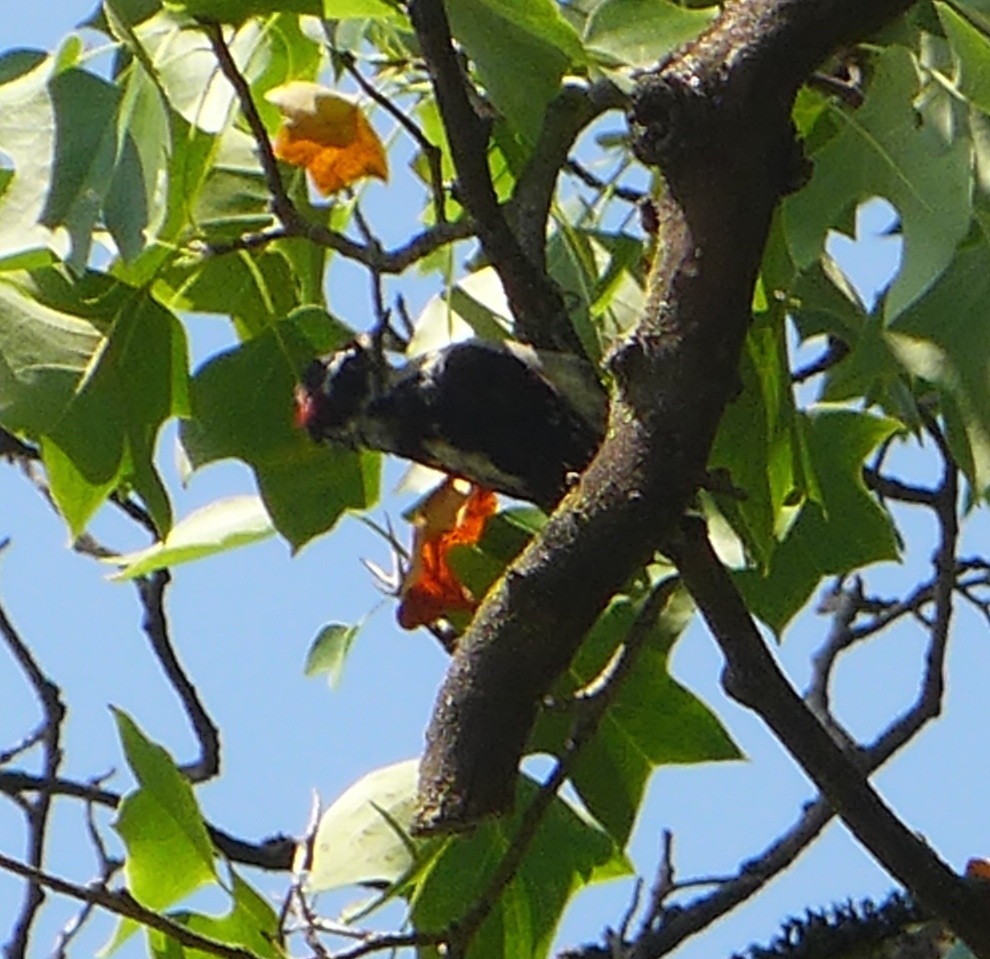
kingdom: Animalia
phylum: Chordata
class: Aves
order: Piciformes
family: Picidae
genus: Dryobates
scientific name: Dryobates pubescens
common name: Downy woodpecker
